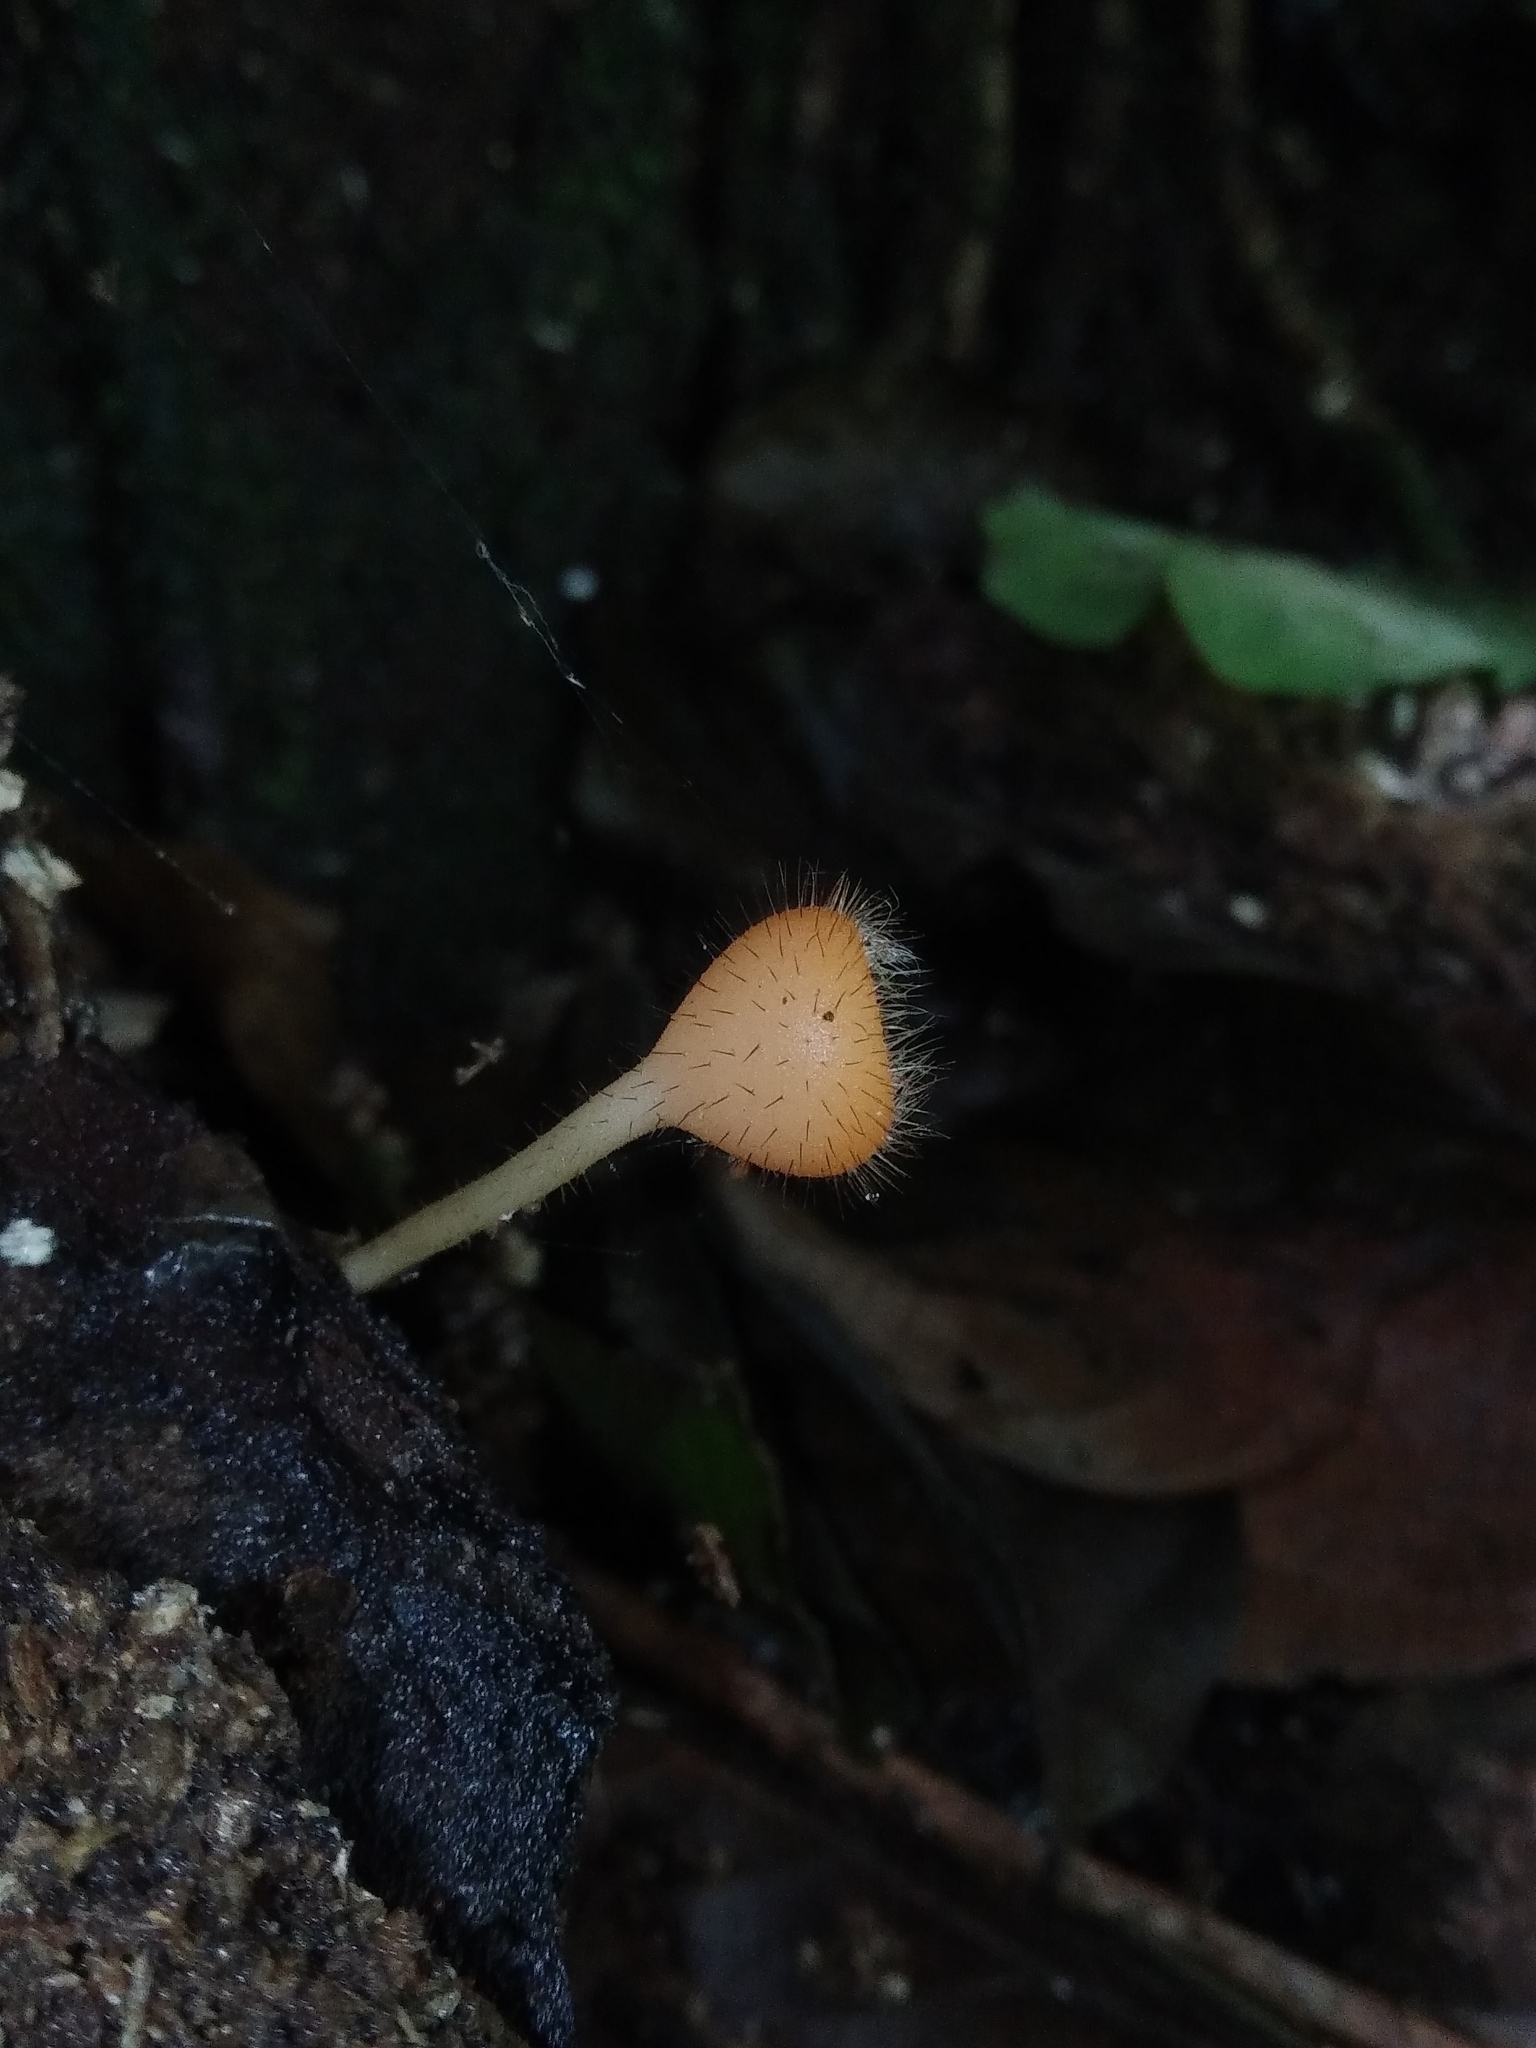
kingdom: Fungi
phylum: Ascomycota
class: Pezizomycetes
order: Pezizales
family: Sarcoscyphaceae
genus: Cookeina
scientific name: Cookeina tricholoma
